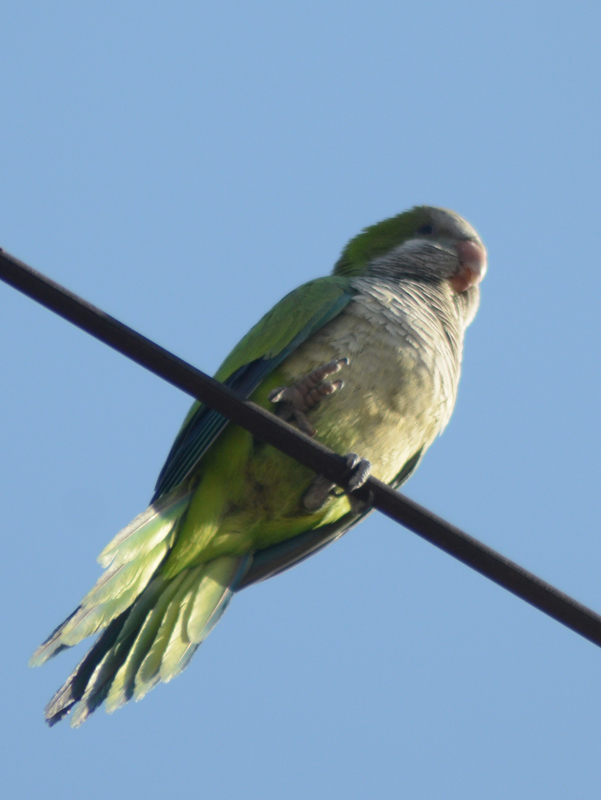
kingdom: Animalia
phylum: Chordata
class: Aves
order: Psittaciformes
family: Psittacidae
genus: Myiopsitta
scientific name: Myiopsitta monachus
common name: Monk parakeet
